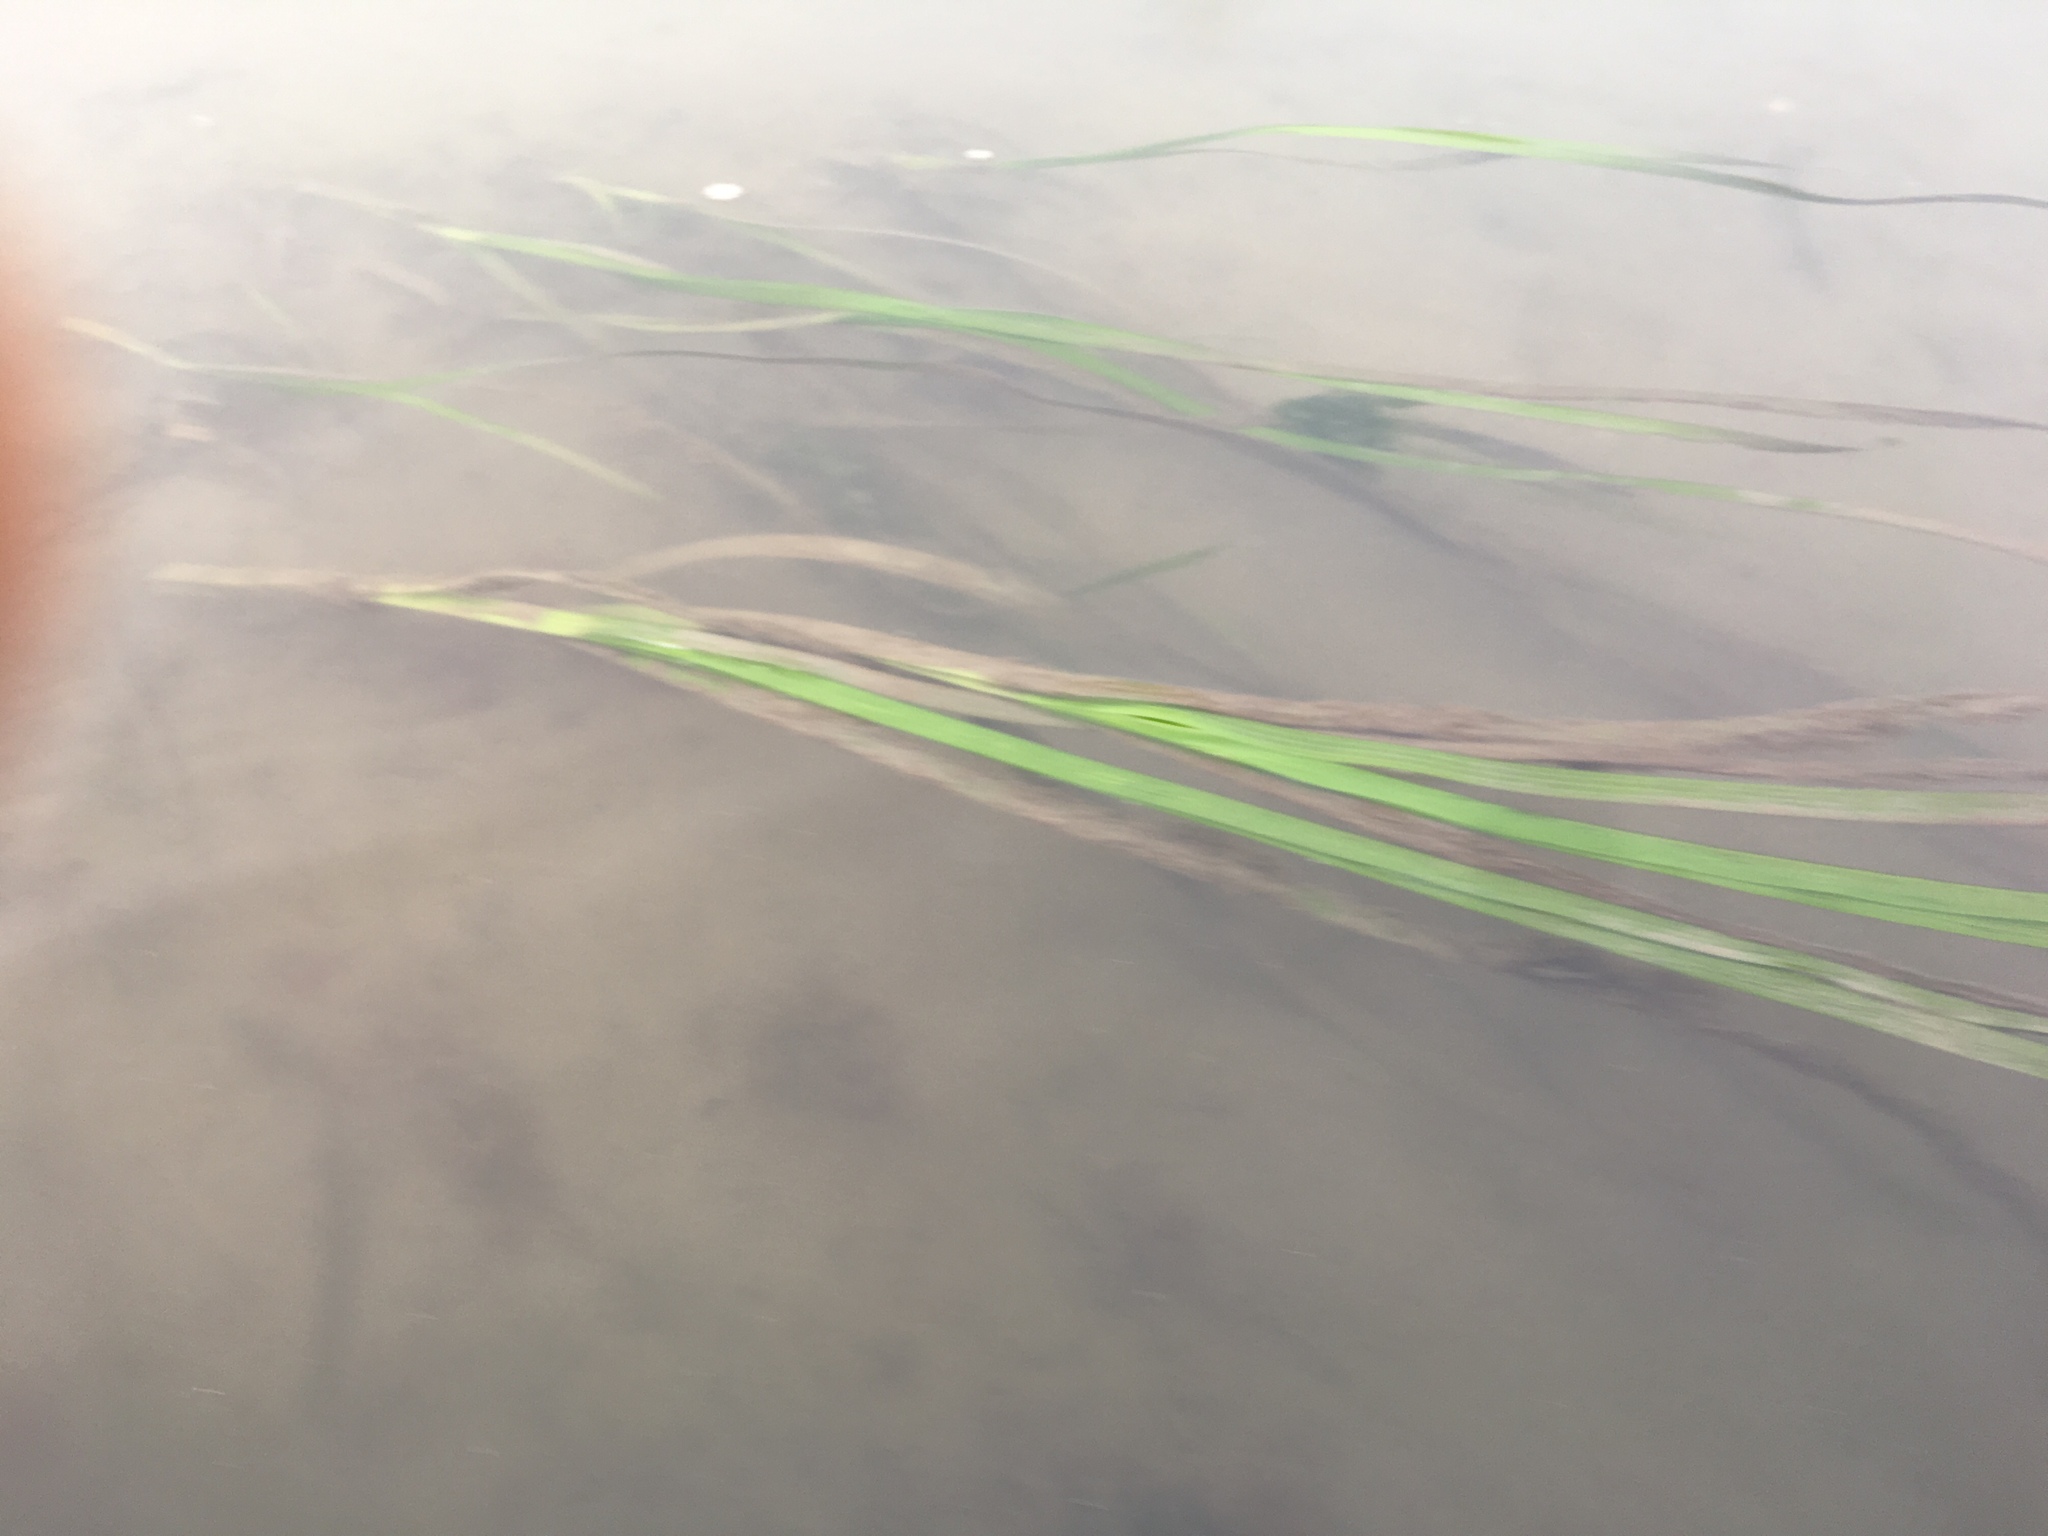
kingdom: Plantae
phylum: Tracheophyta
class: Liliopsida
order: Alismatales
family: Zosteraceae
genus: Zostera
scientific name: Zostera marina
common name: Eelgrass
